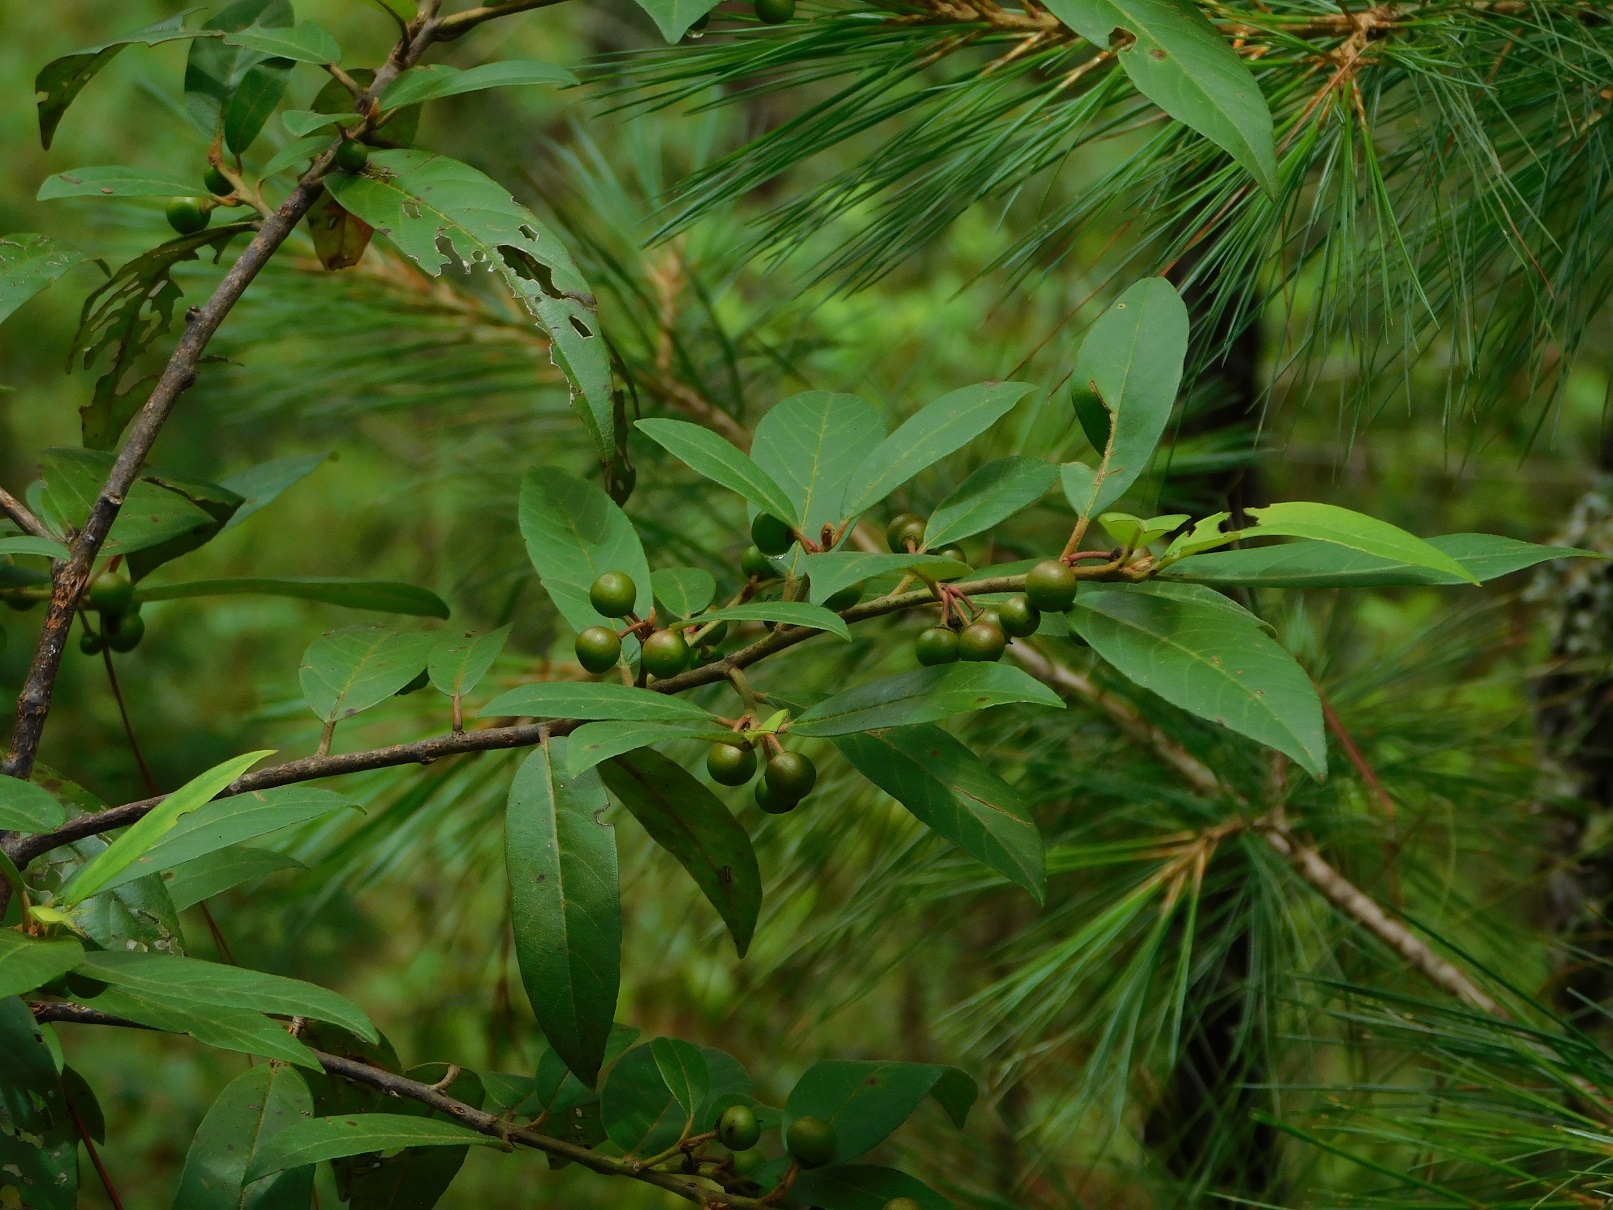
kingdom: Plantae
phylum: Tracheophyta
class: Magnoliopsida
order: Rosales
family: Rhamnaceae
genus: Frangula
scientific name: Frangula mucronata
